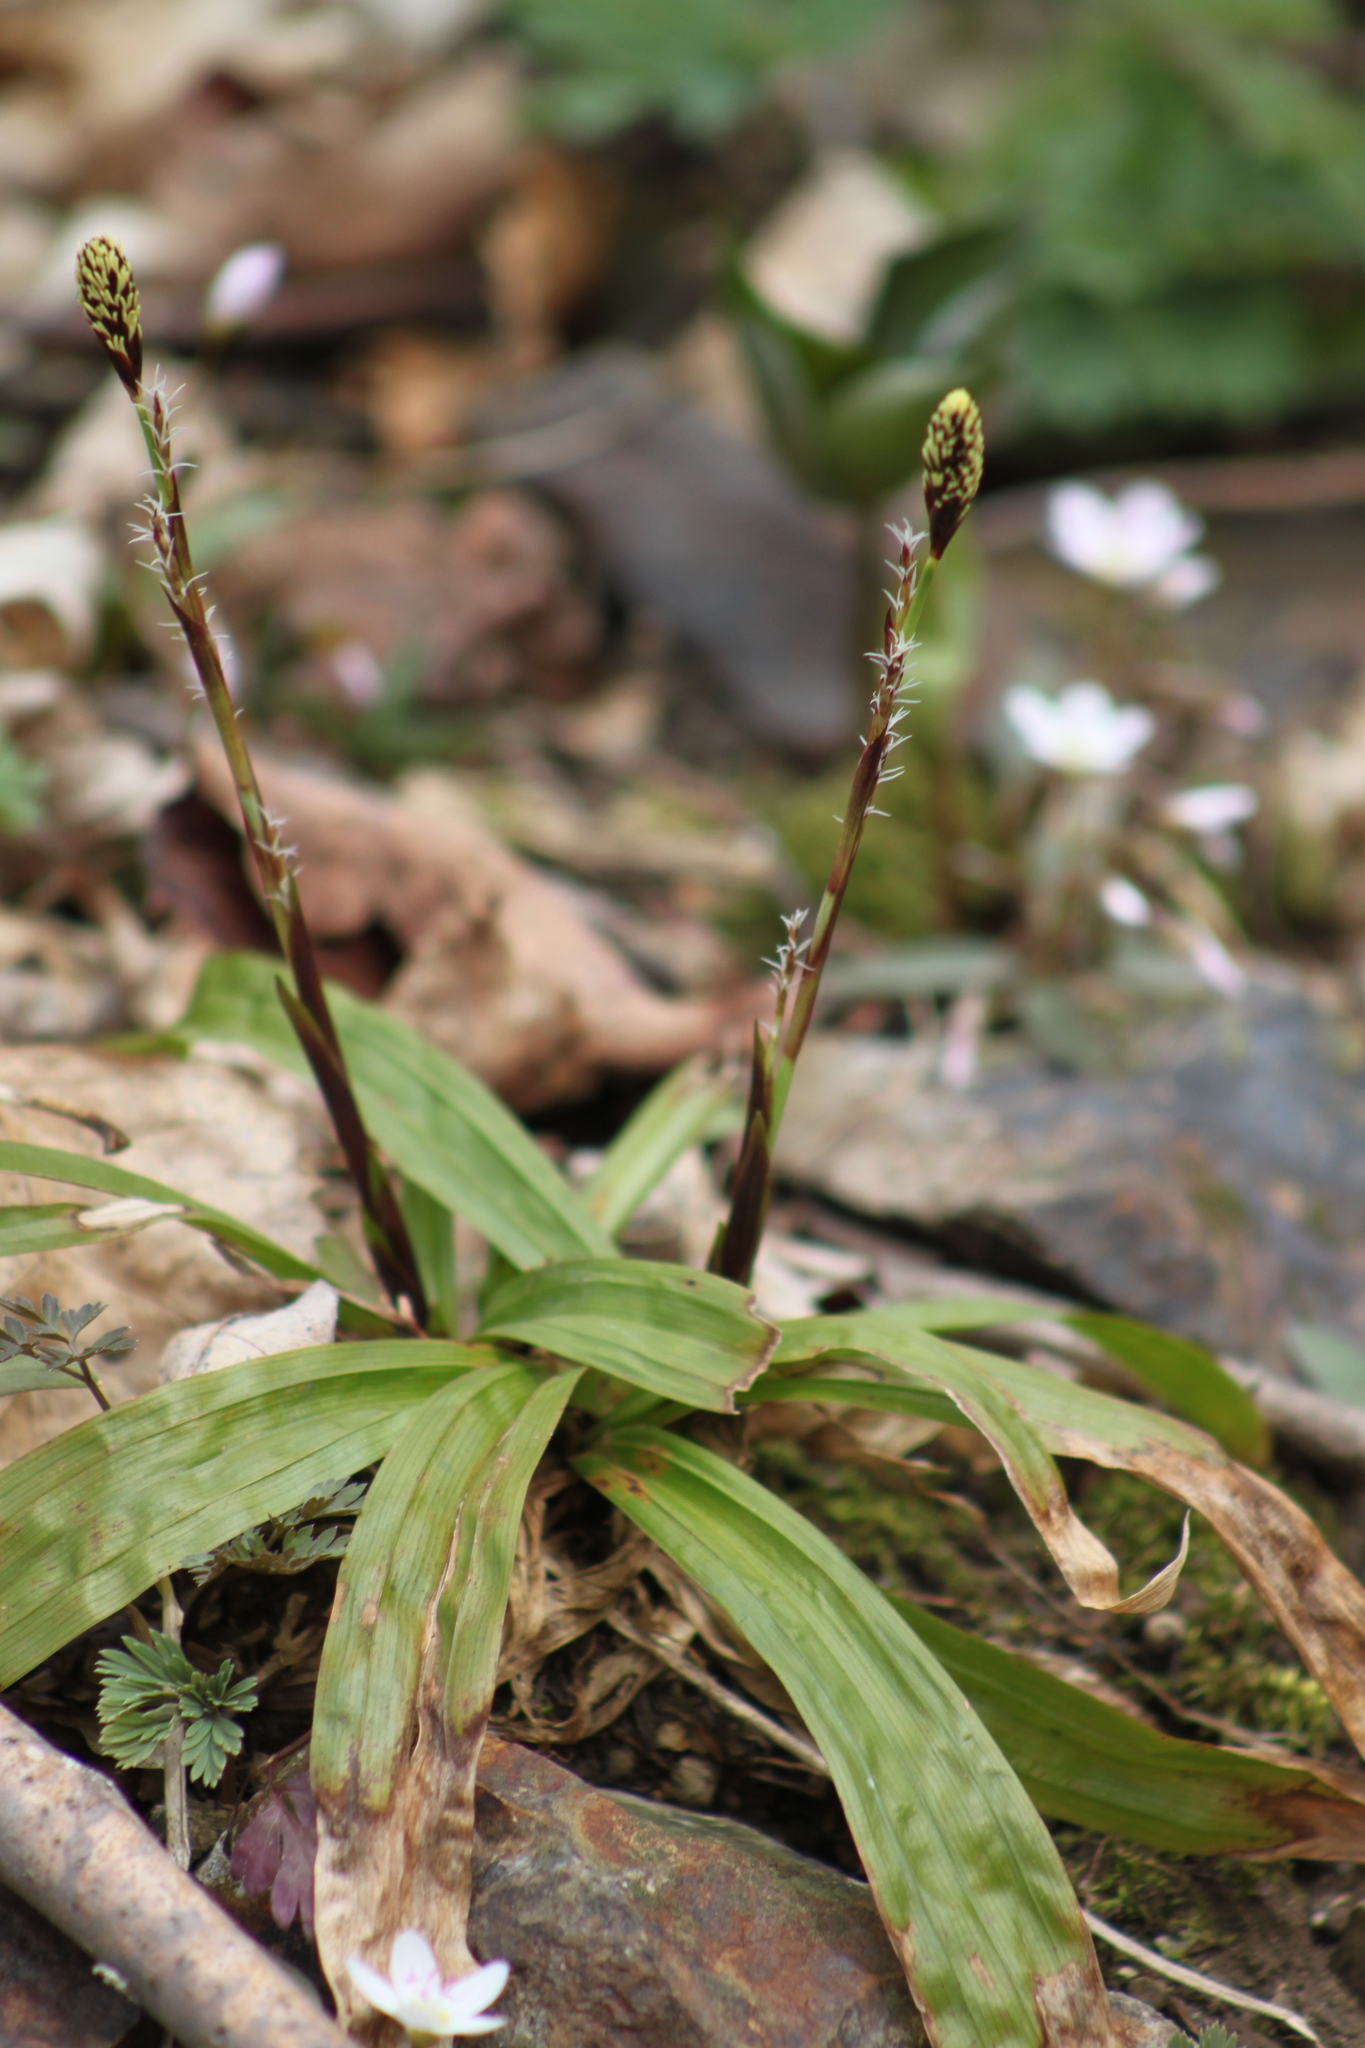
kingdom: Plantae
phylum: Tracheophyta
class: Liliopsida
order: Poales
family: Cyperaceae
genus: Carex
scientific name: Carex plantaginea
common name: Plantain-leaved sedge
